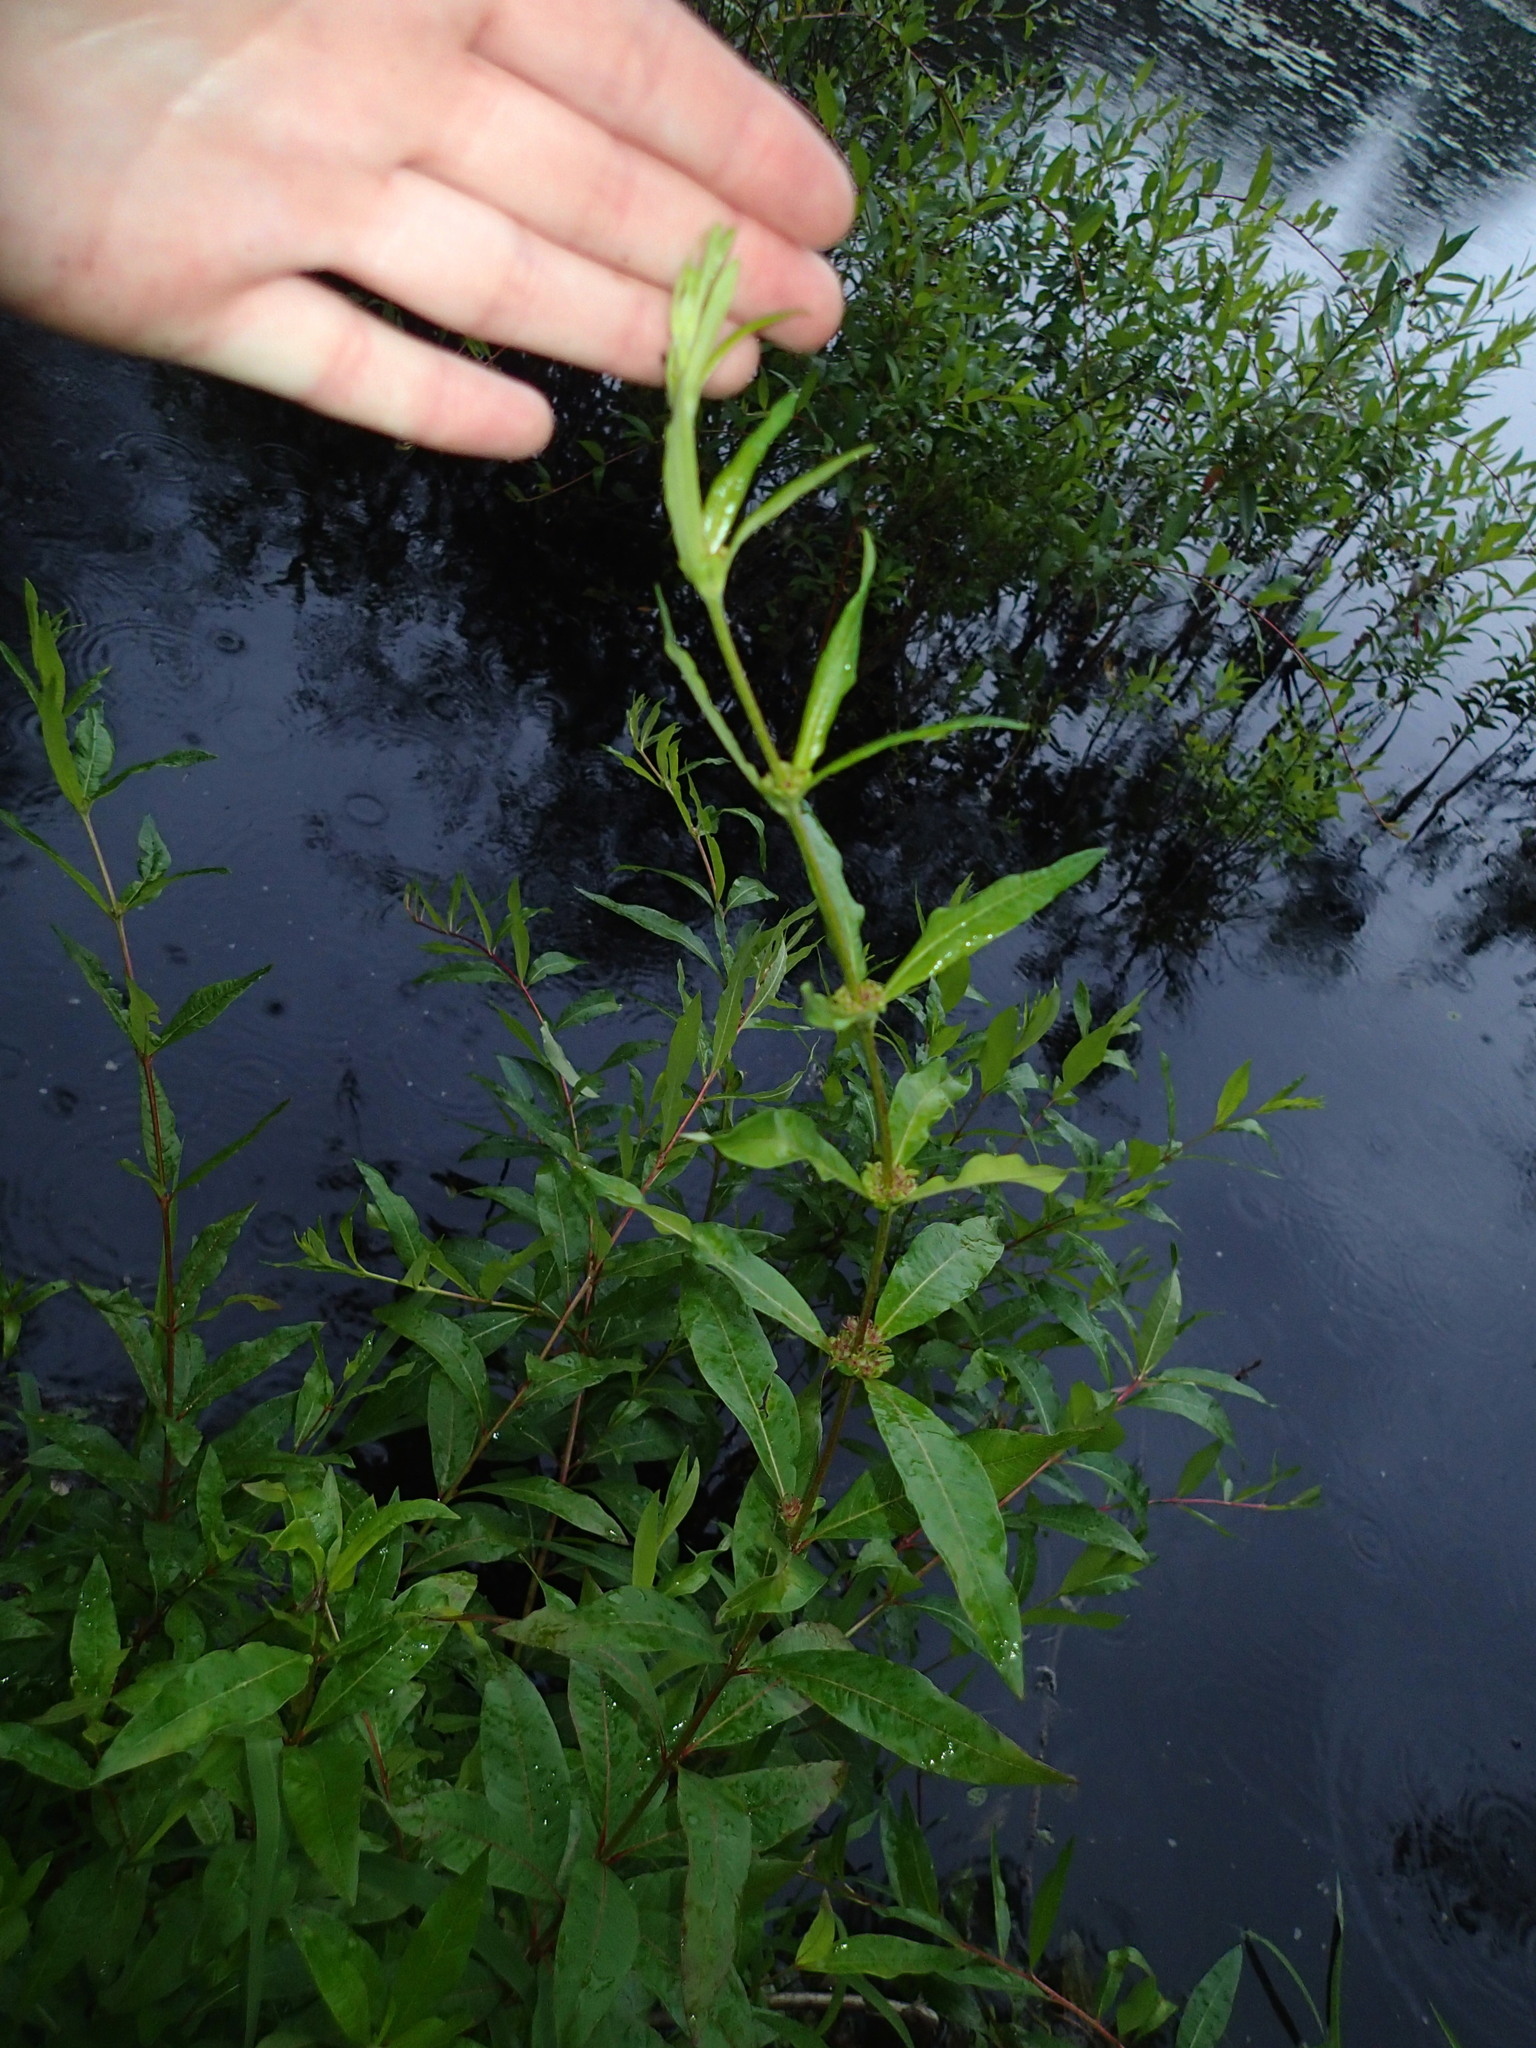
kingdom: Plantae
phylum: Tracheophyta
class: Magnoliopsida
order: Myrtales
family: Lythraceae
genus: Decodon
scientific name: Decodon verticillatus
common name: Hairy swamp loosestrife
